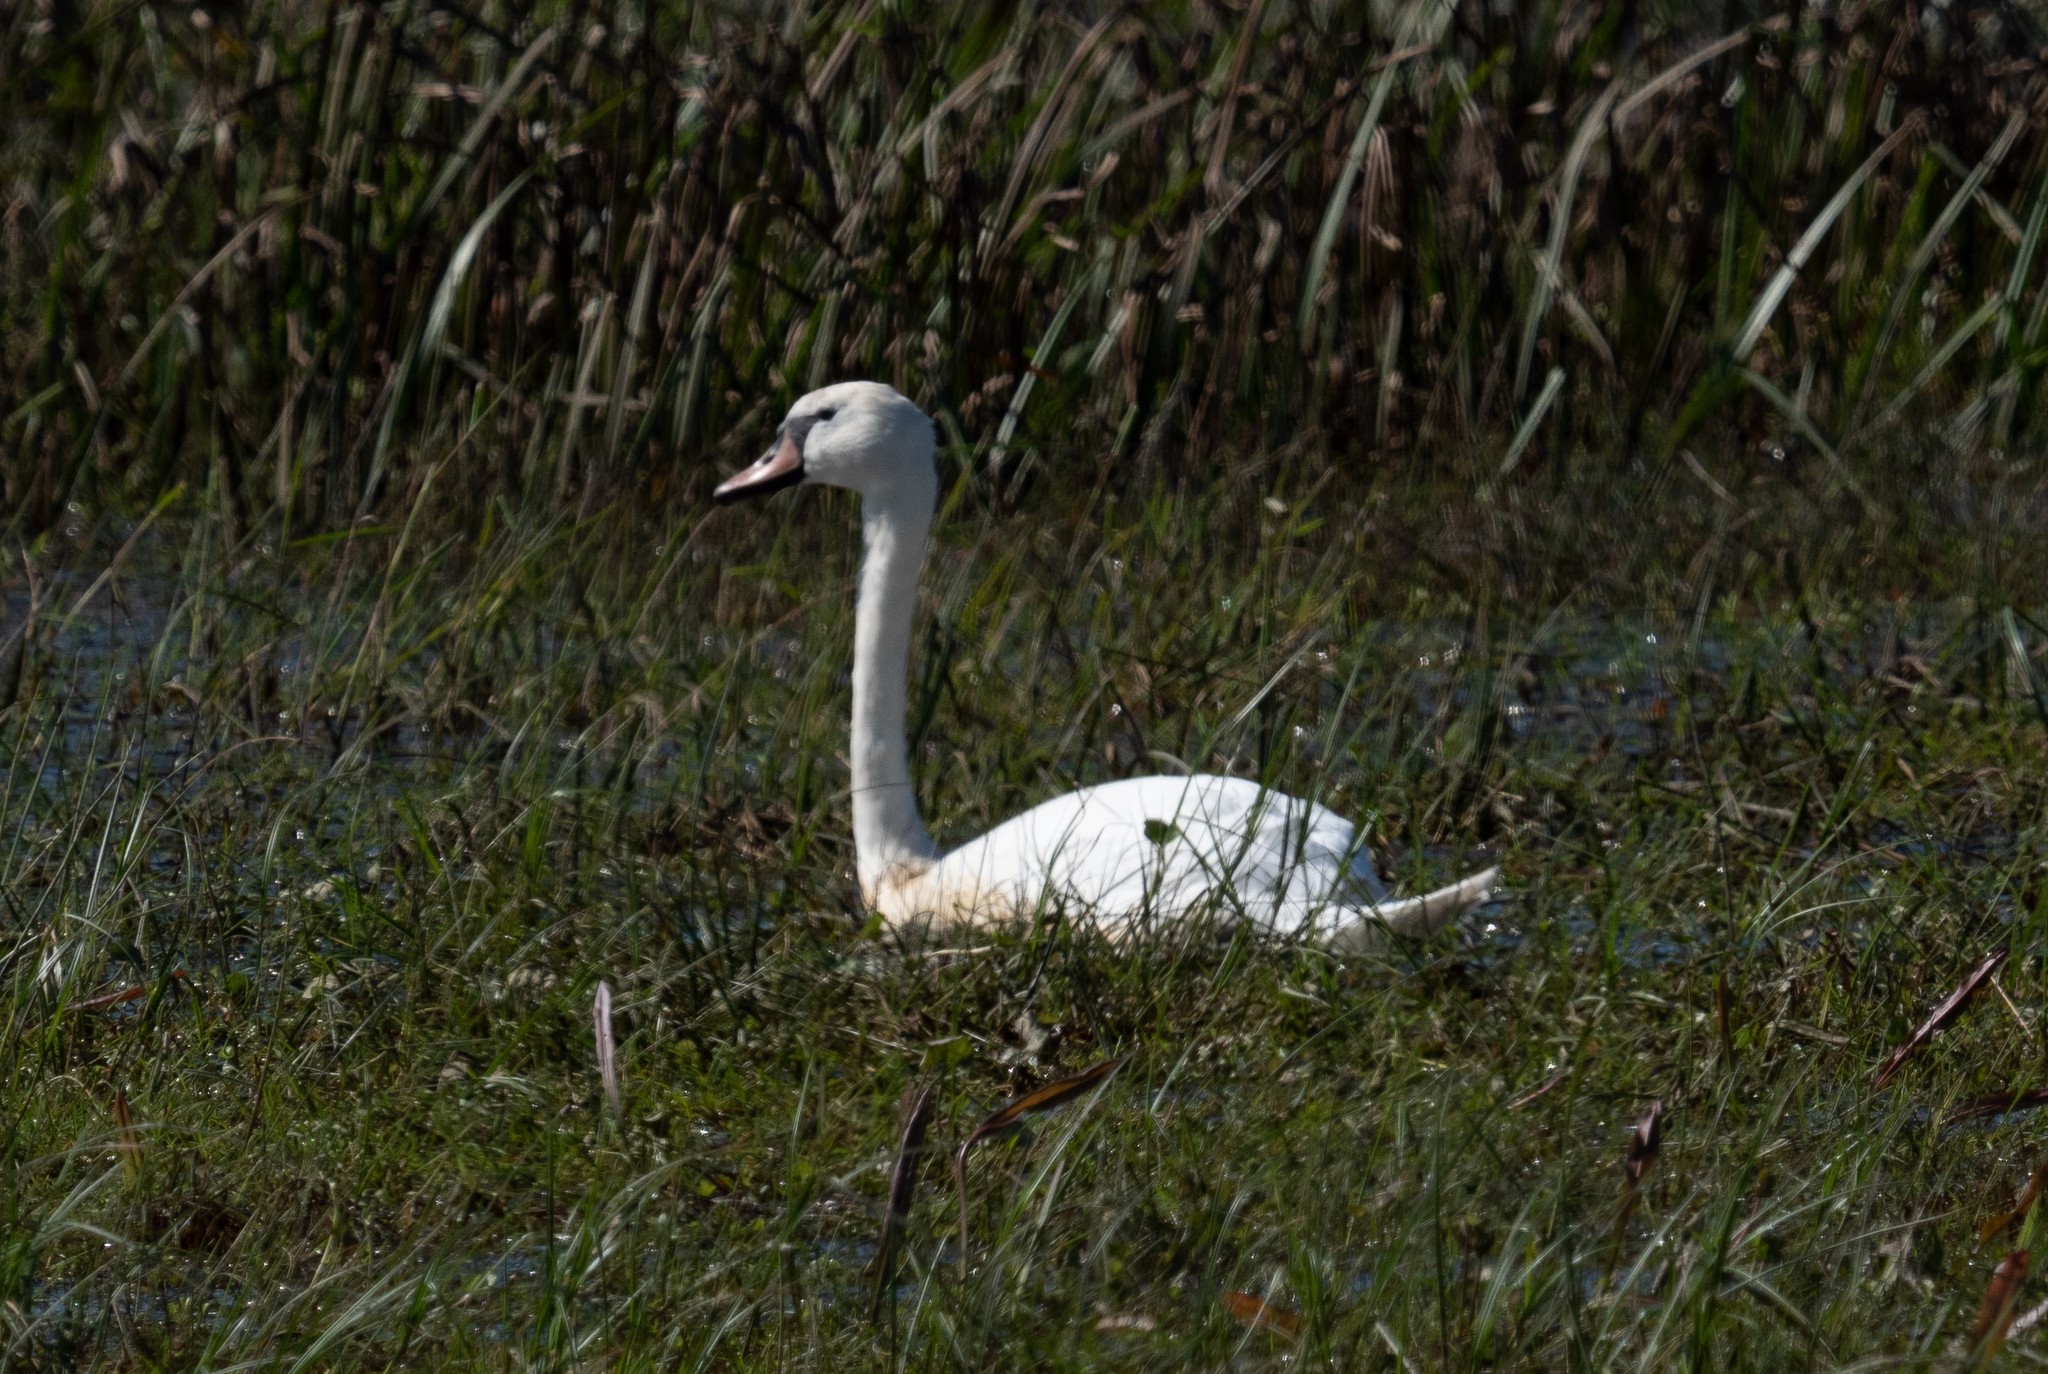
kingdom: Animalia
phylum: Chordata
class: Aves
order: Anseriformes
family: Anatidae
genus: Cygnus
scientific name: Cygnus olor
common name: Mute swan
